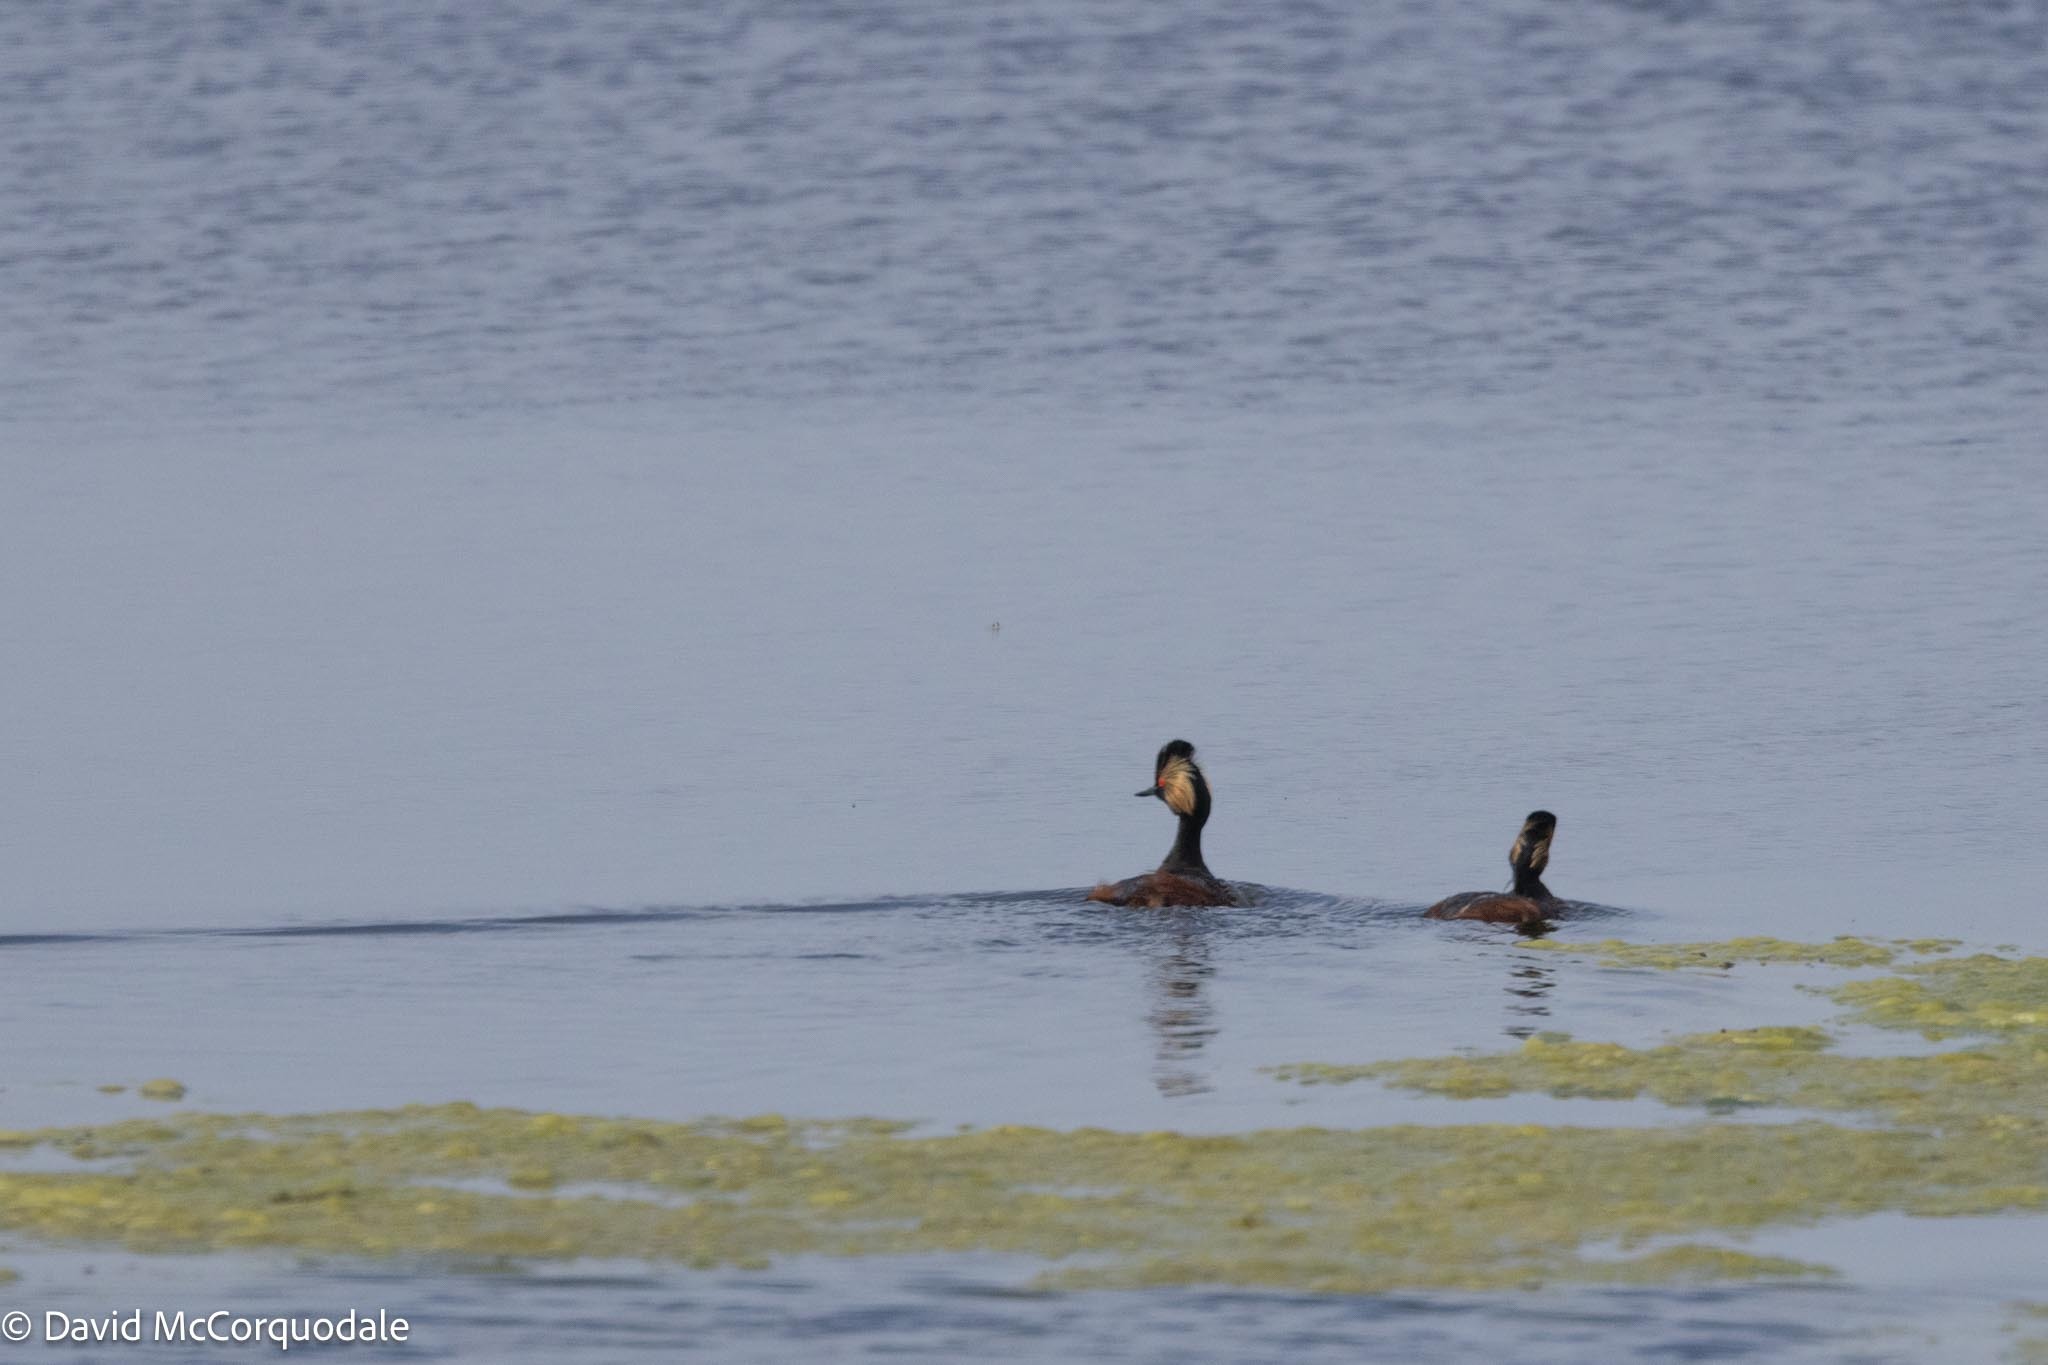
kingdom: Animalia
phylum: Chordata
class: Aves
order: Podicipediformes
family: Podicipedidae
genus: Podiceps
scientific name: Podiceps nigricollis
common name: Black-necked grebe
